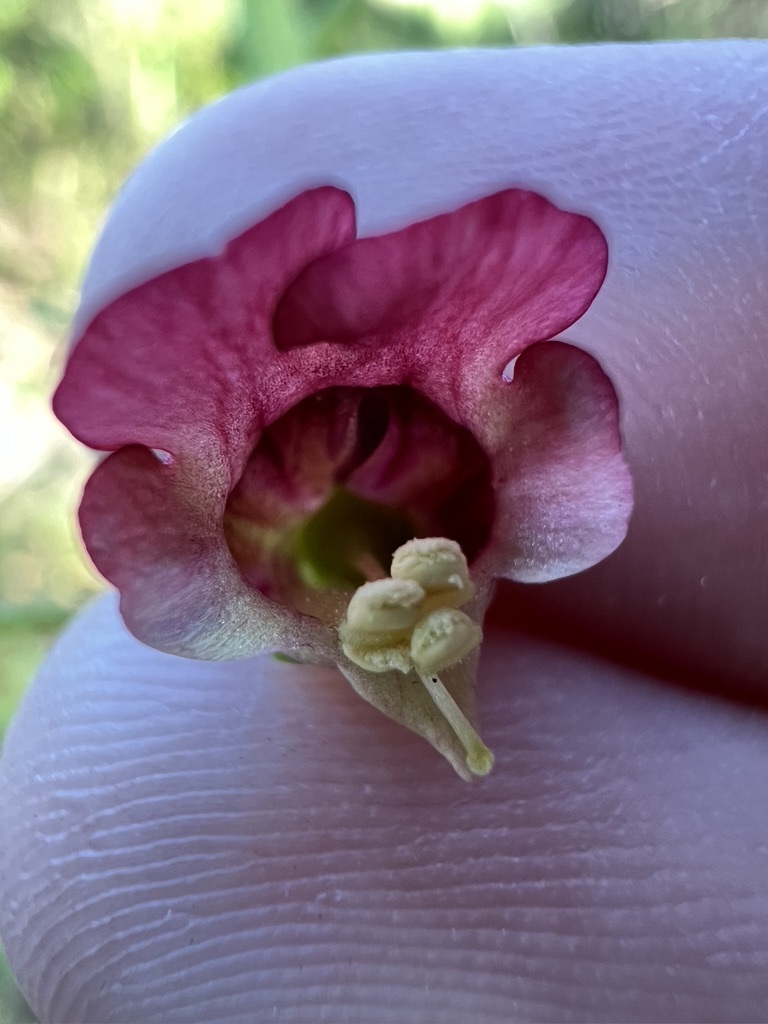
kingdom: Plantae
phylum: Tracheophyta
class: Magnoliopsida
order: Lamiales
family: Scrophulariaceae
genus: Scrophularia
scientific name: Scrophularia californica
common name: California figwort
